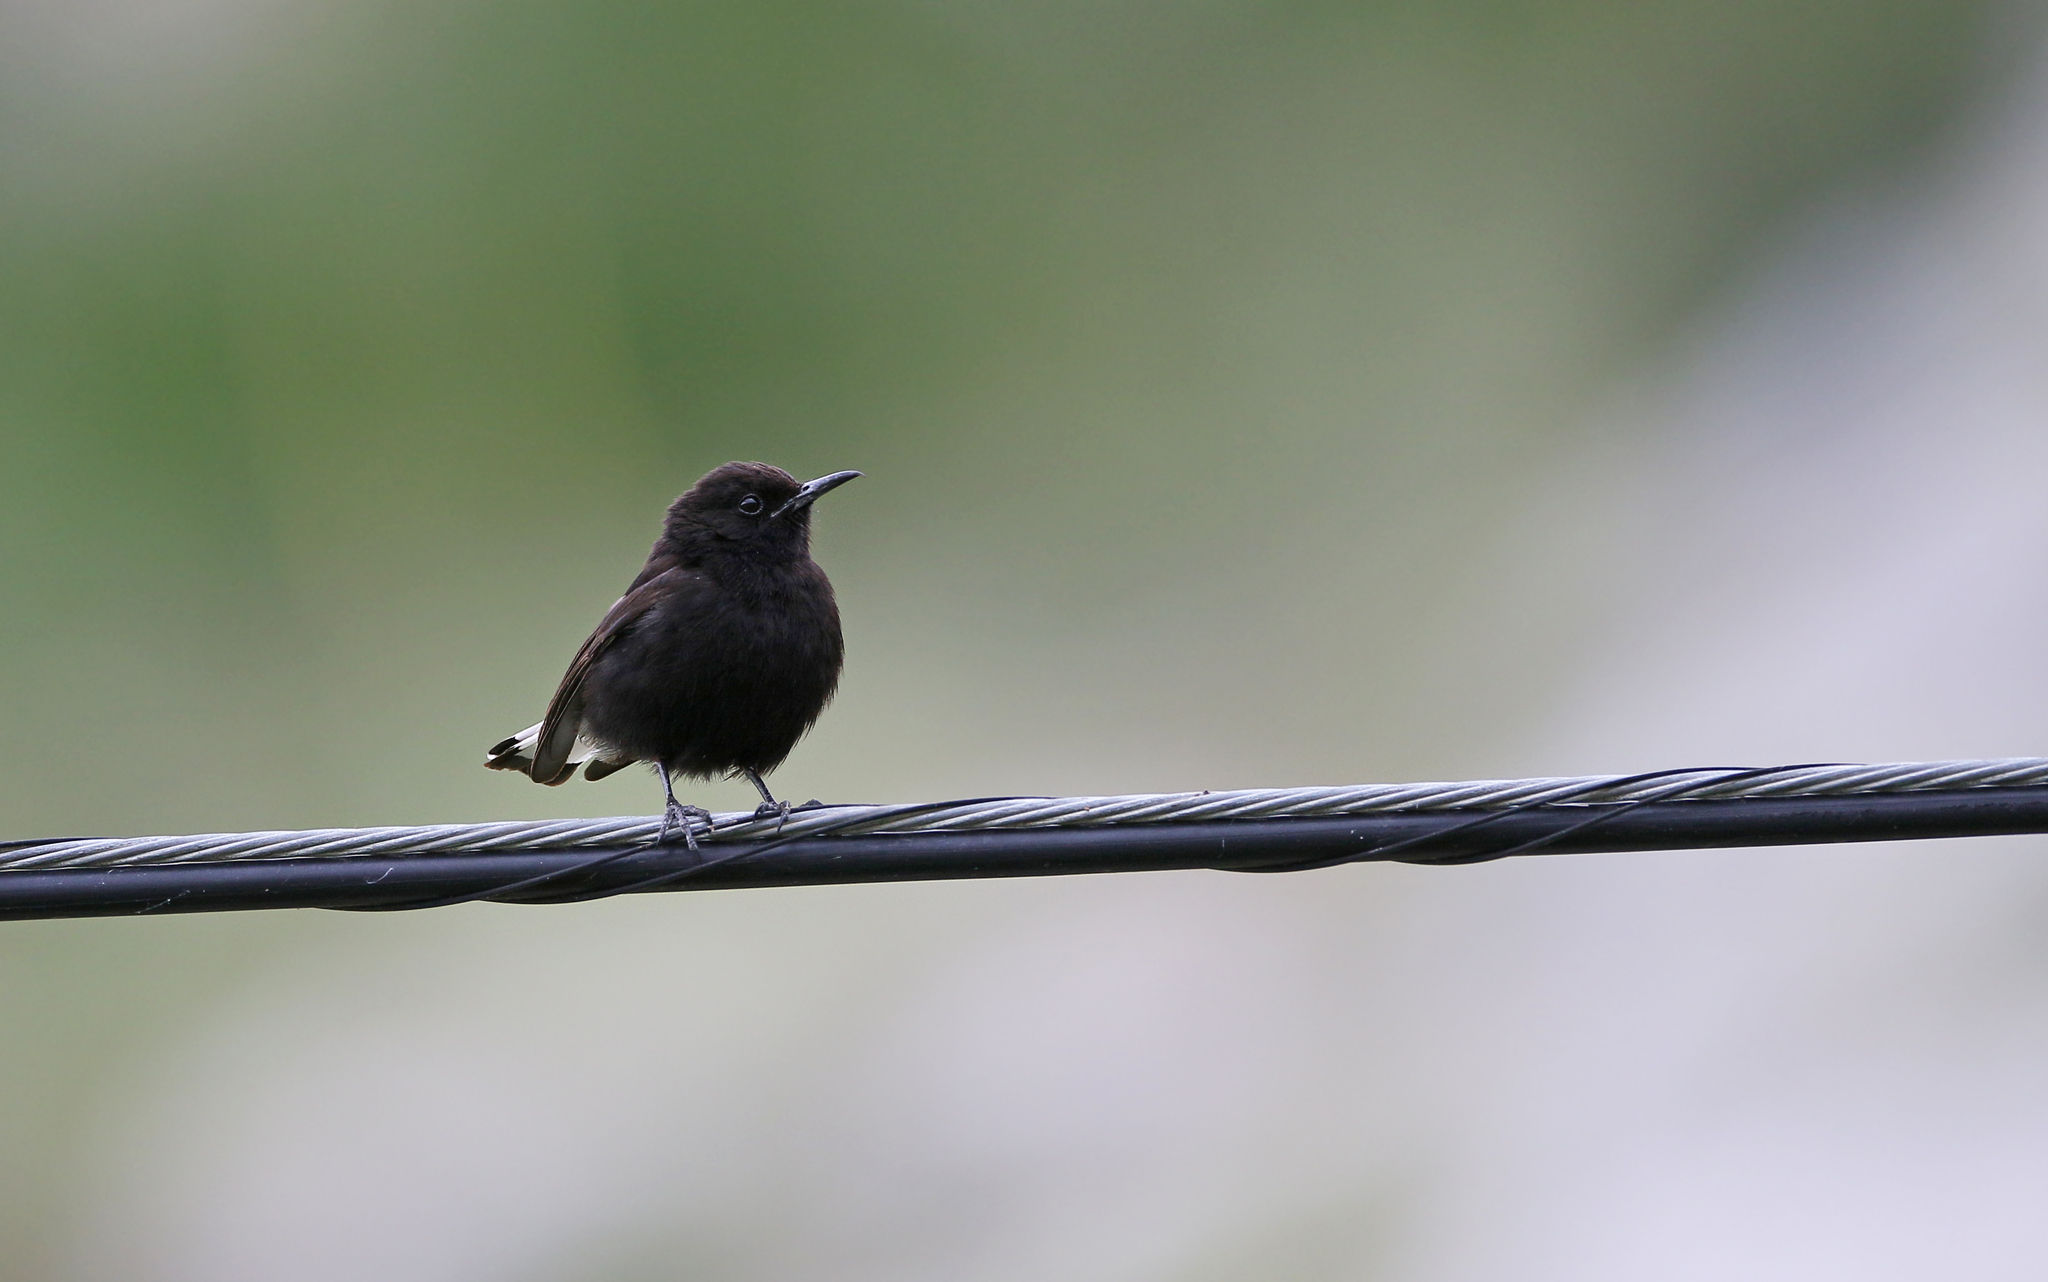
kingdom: Animalia
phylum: Chordata
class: Aves
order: Passeriformes
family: Muscicapidae
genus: Oenanthe
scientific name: Oenanthe leucura
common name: Black wheatear
